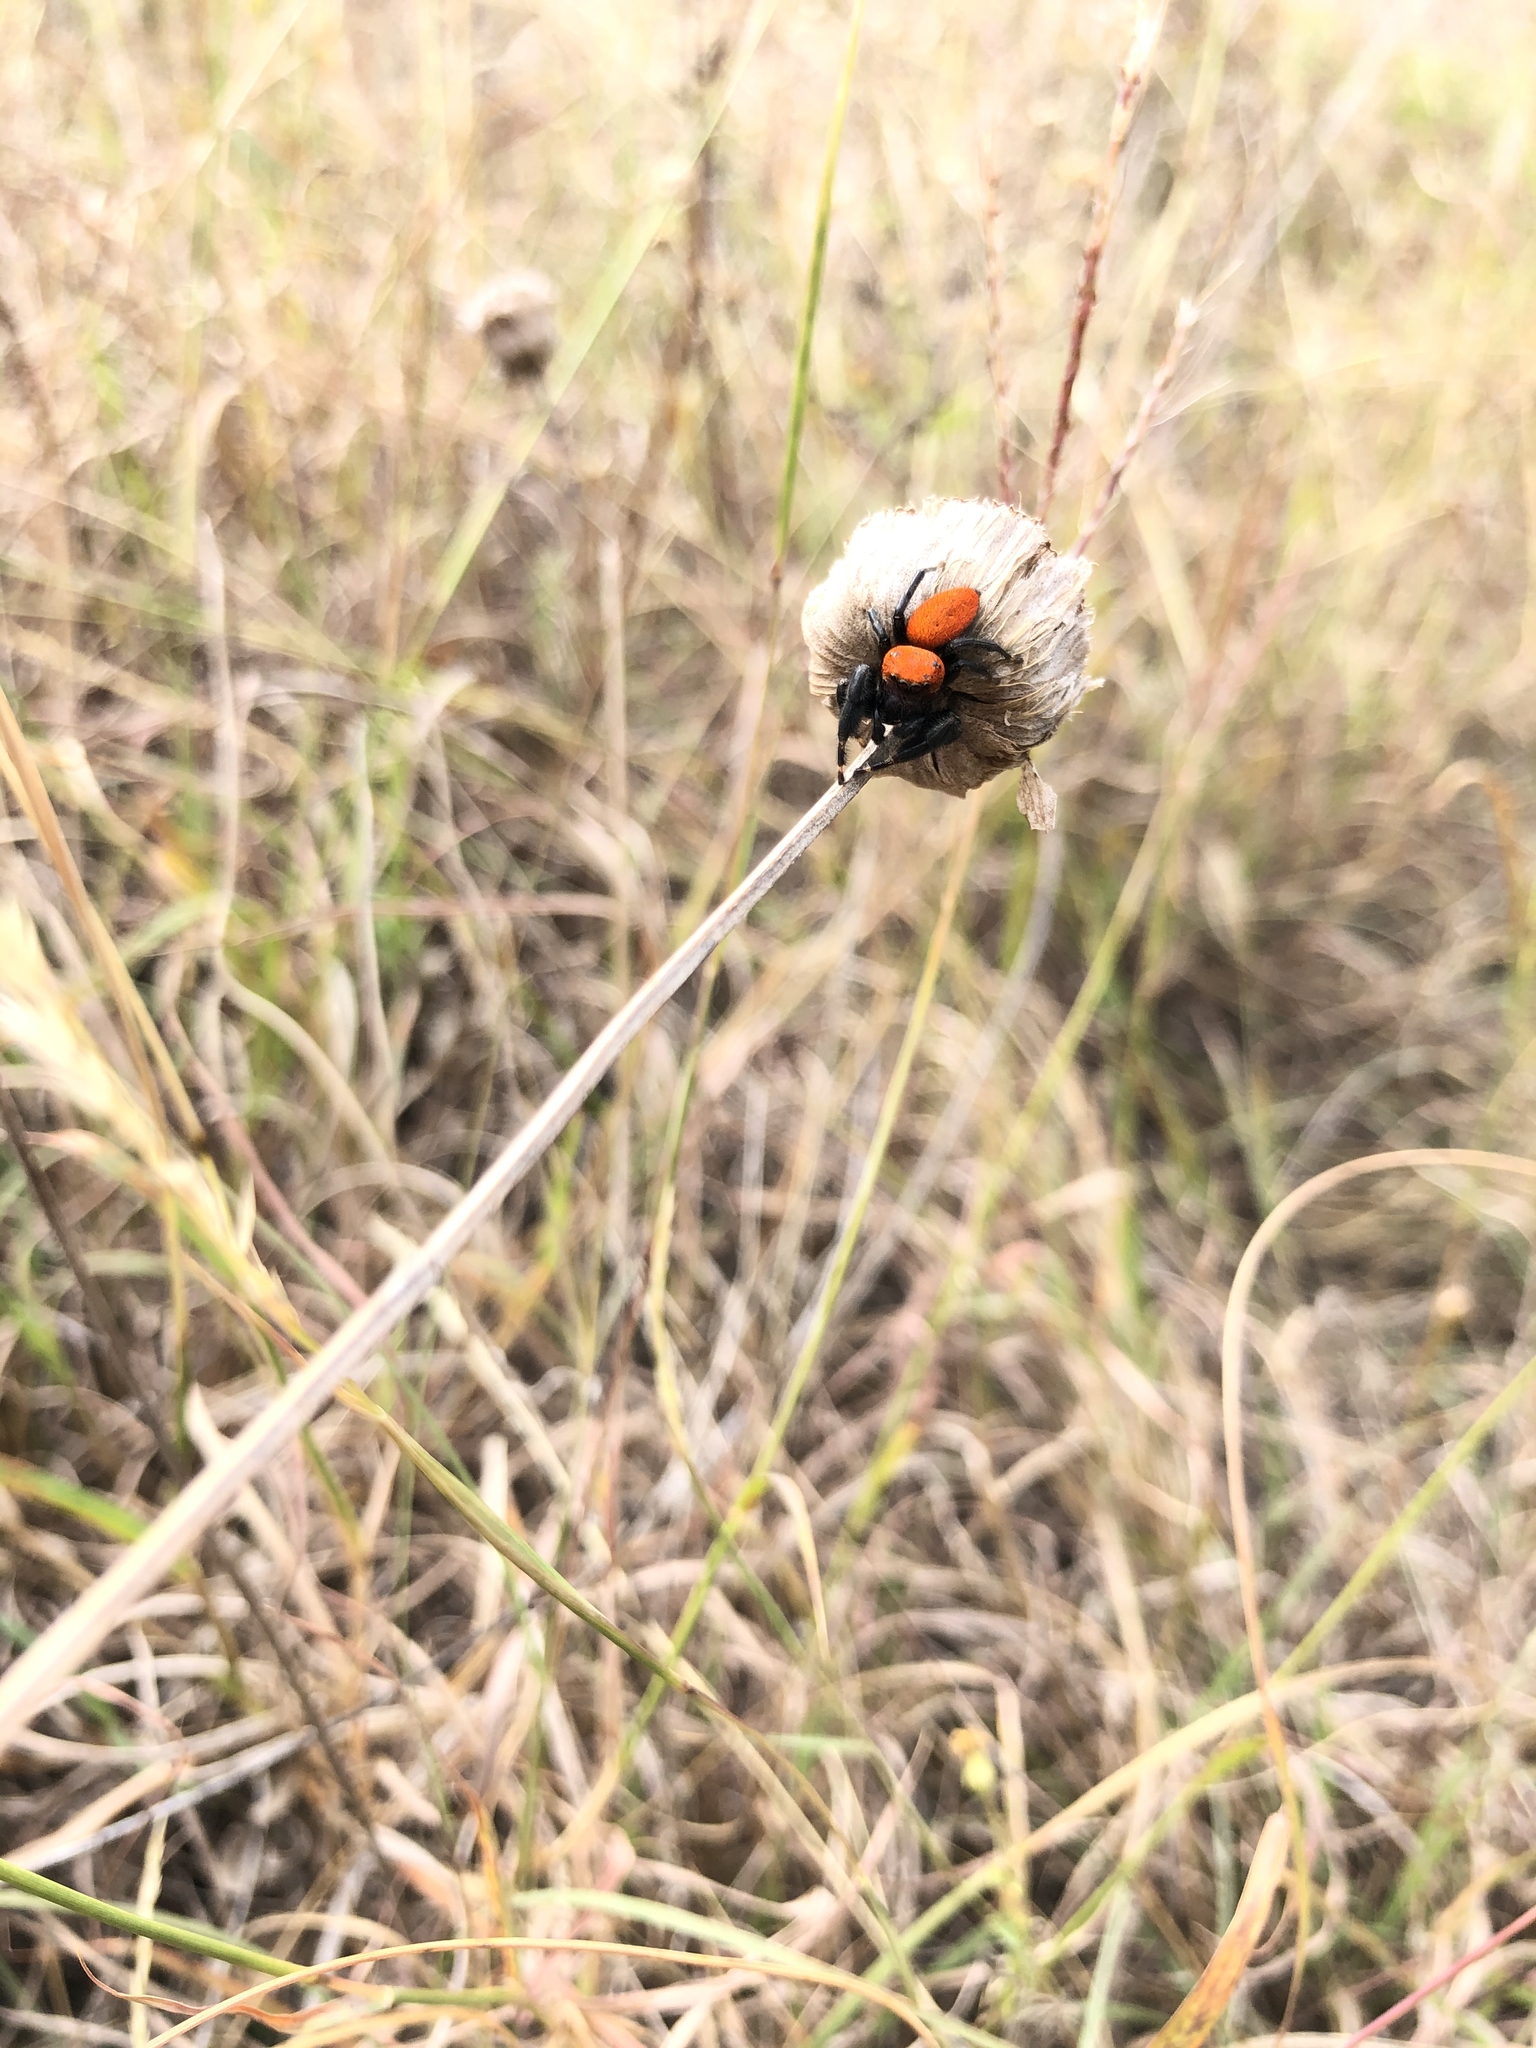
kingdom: Animalia
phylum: Arthropoda
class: Arachnida
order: Araneae
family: Salticidae
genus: Phidippus
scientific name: Phidippus cardinalis
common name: Cardinal jumper
